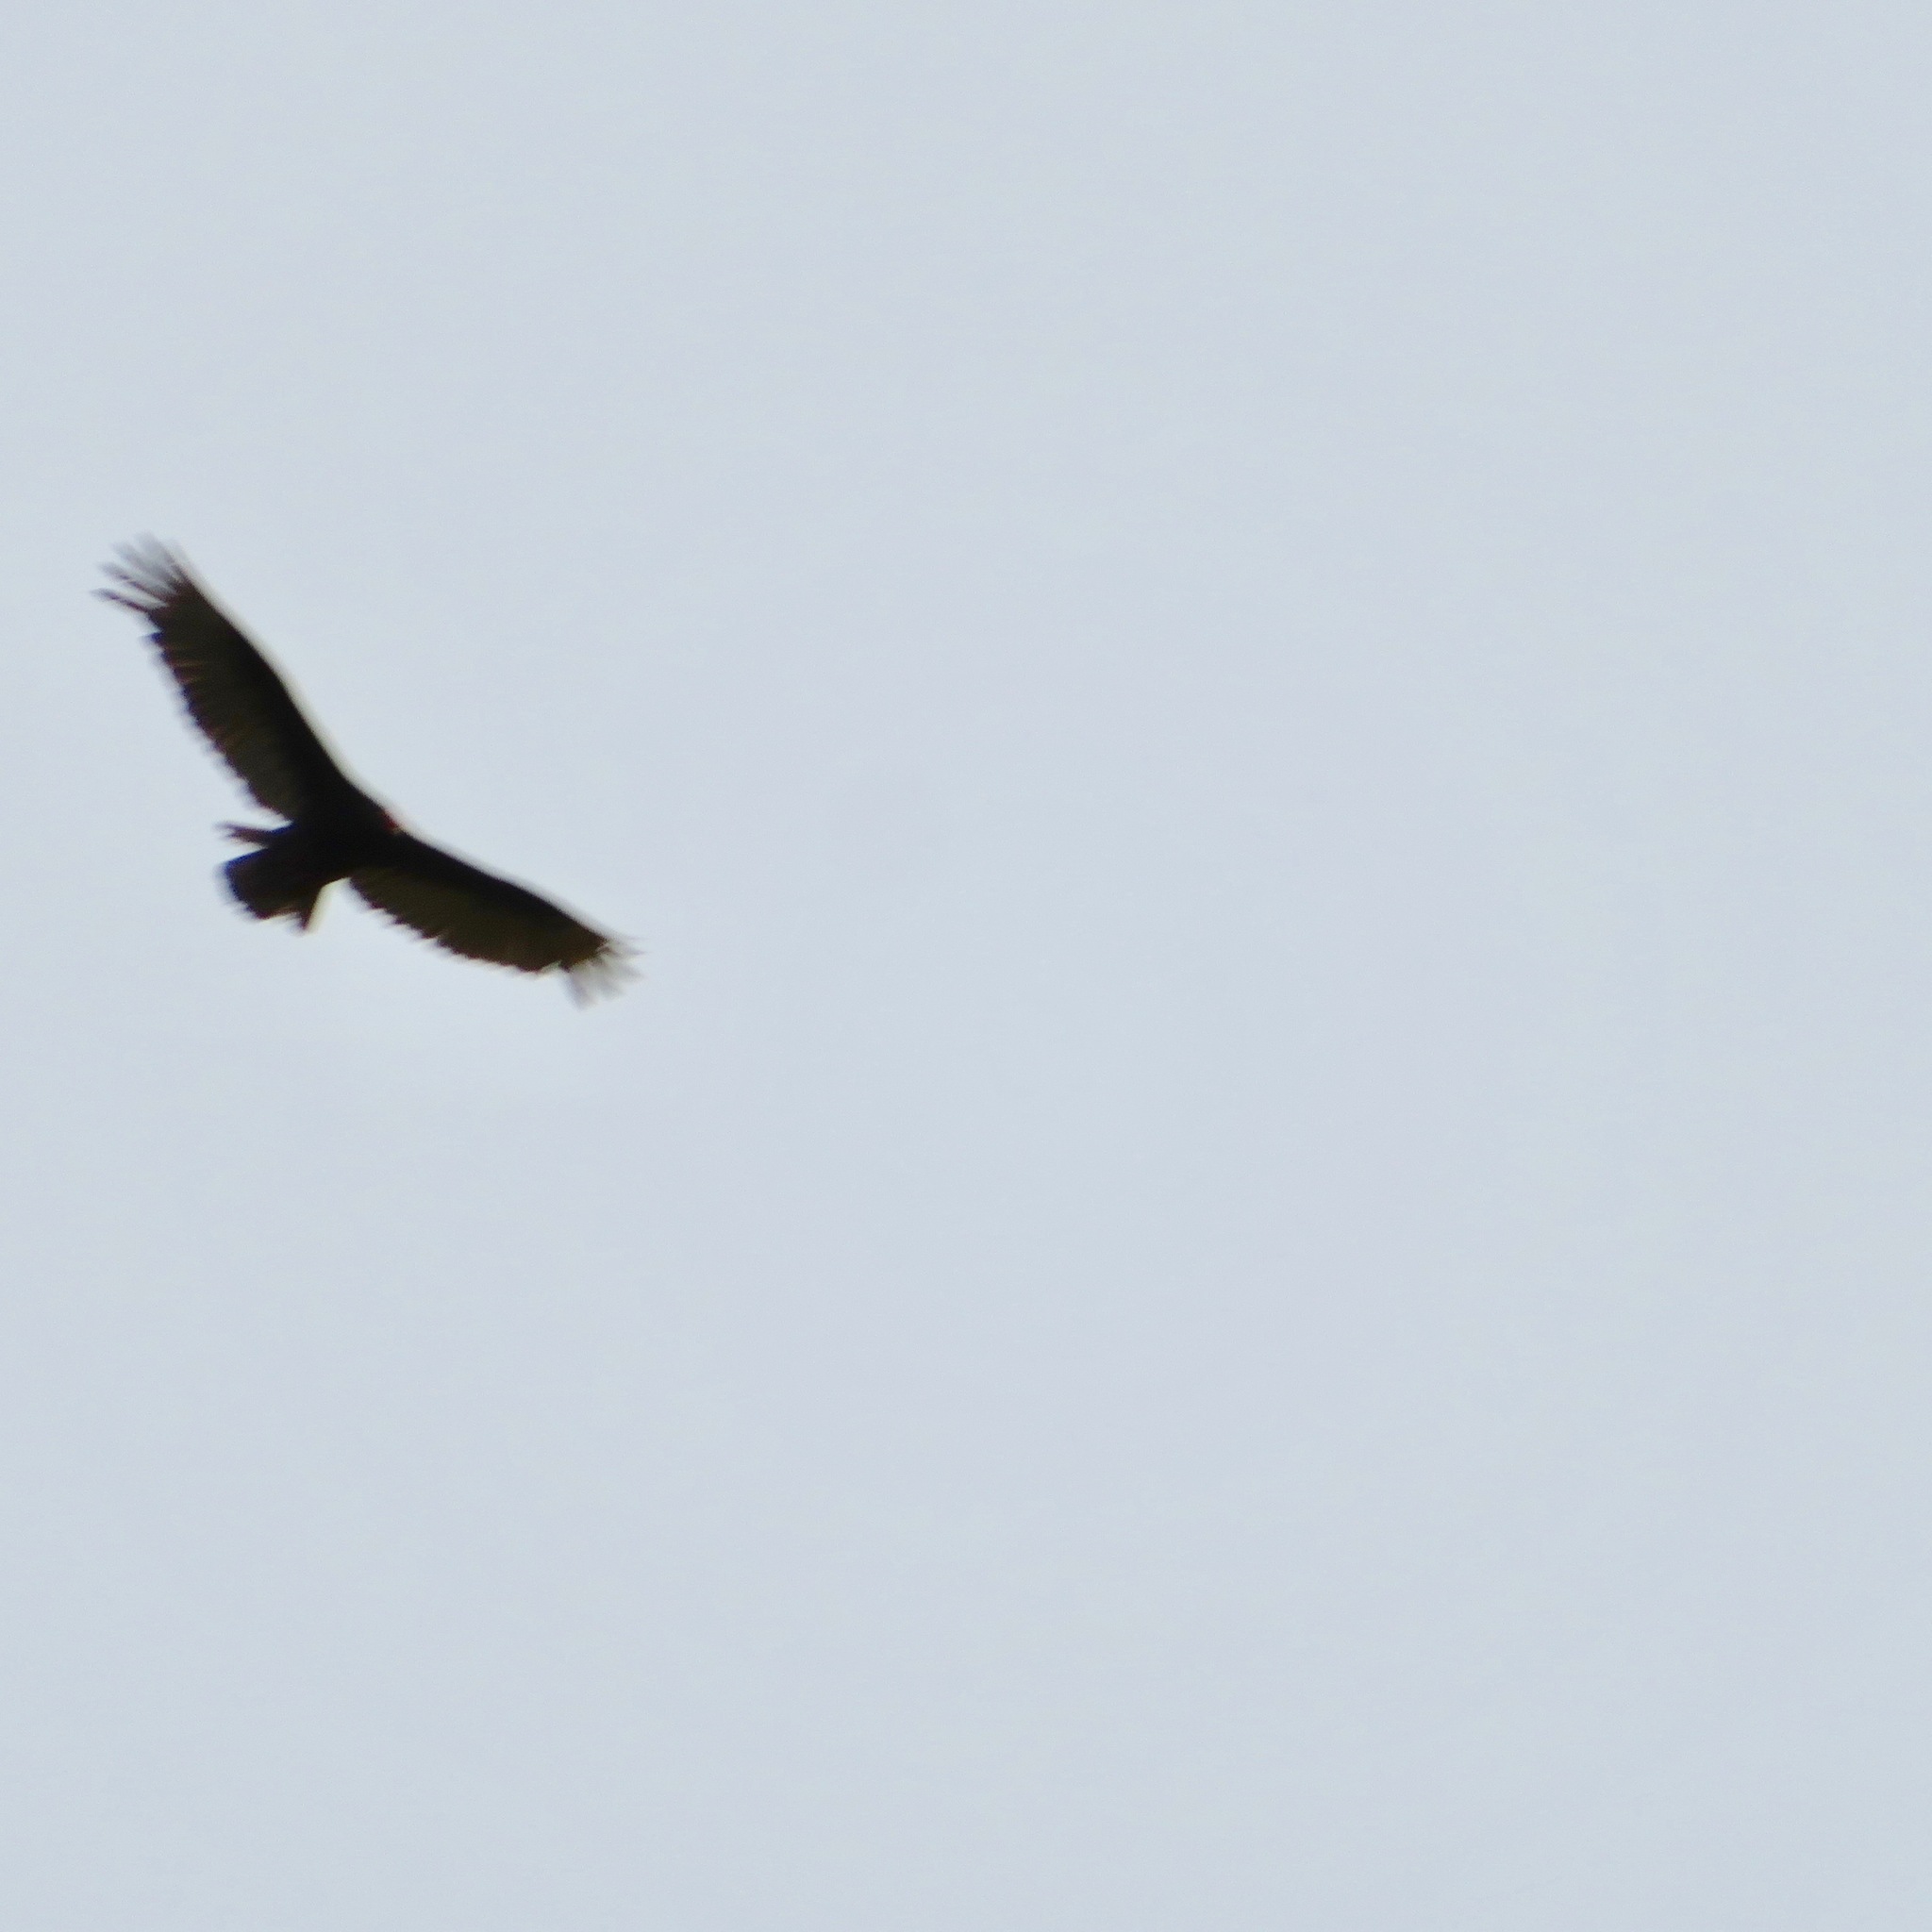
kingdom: Animalia
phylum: Chordata
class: Aves
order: Accipitriformes
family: Cathartidae
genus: Cathartes
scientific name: Cathartes aura
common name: Turkey vulture
